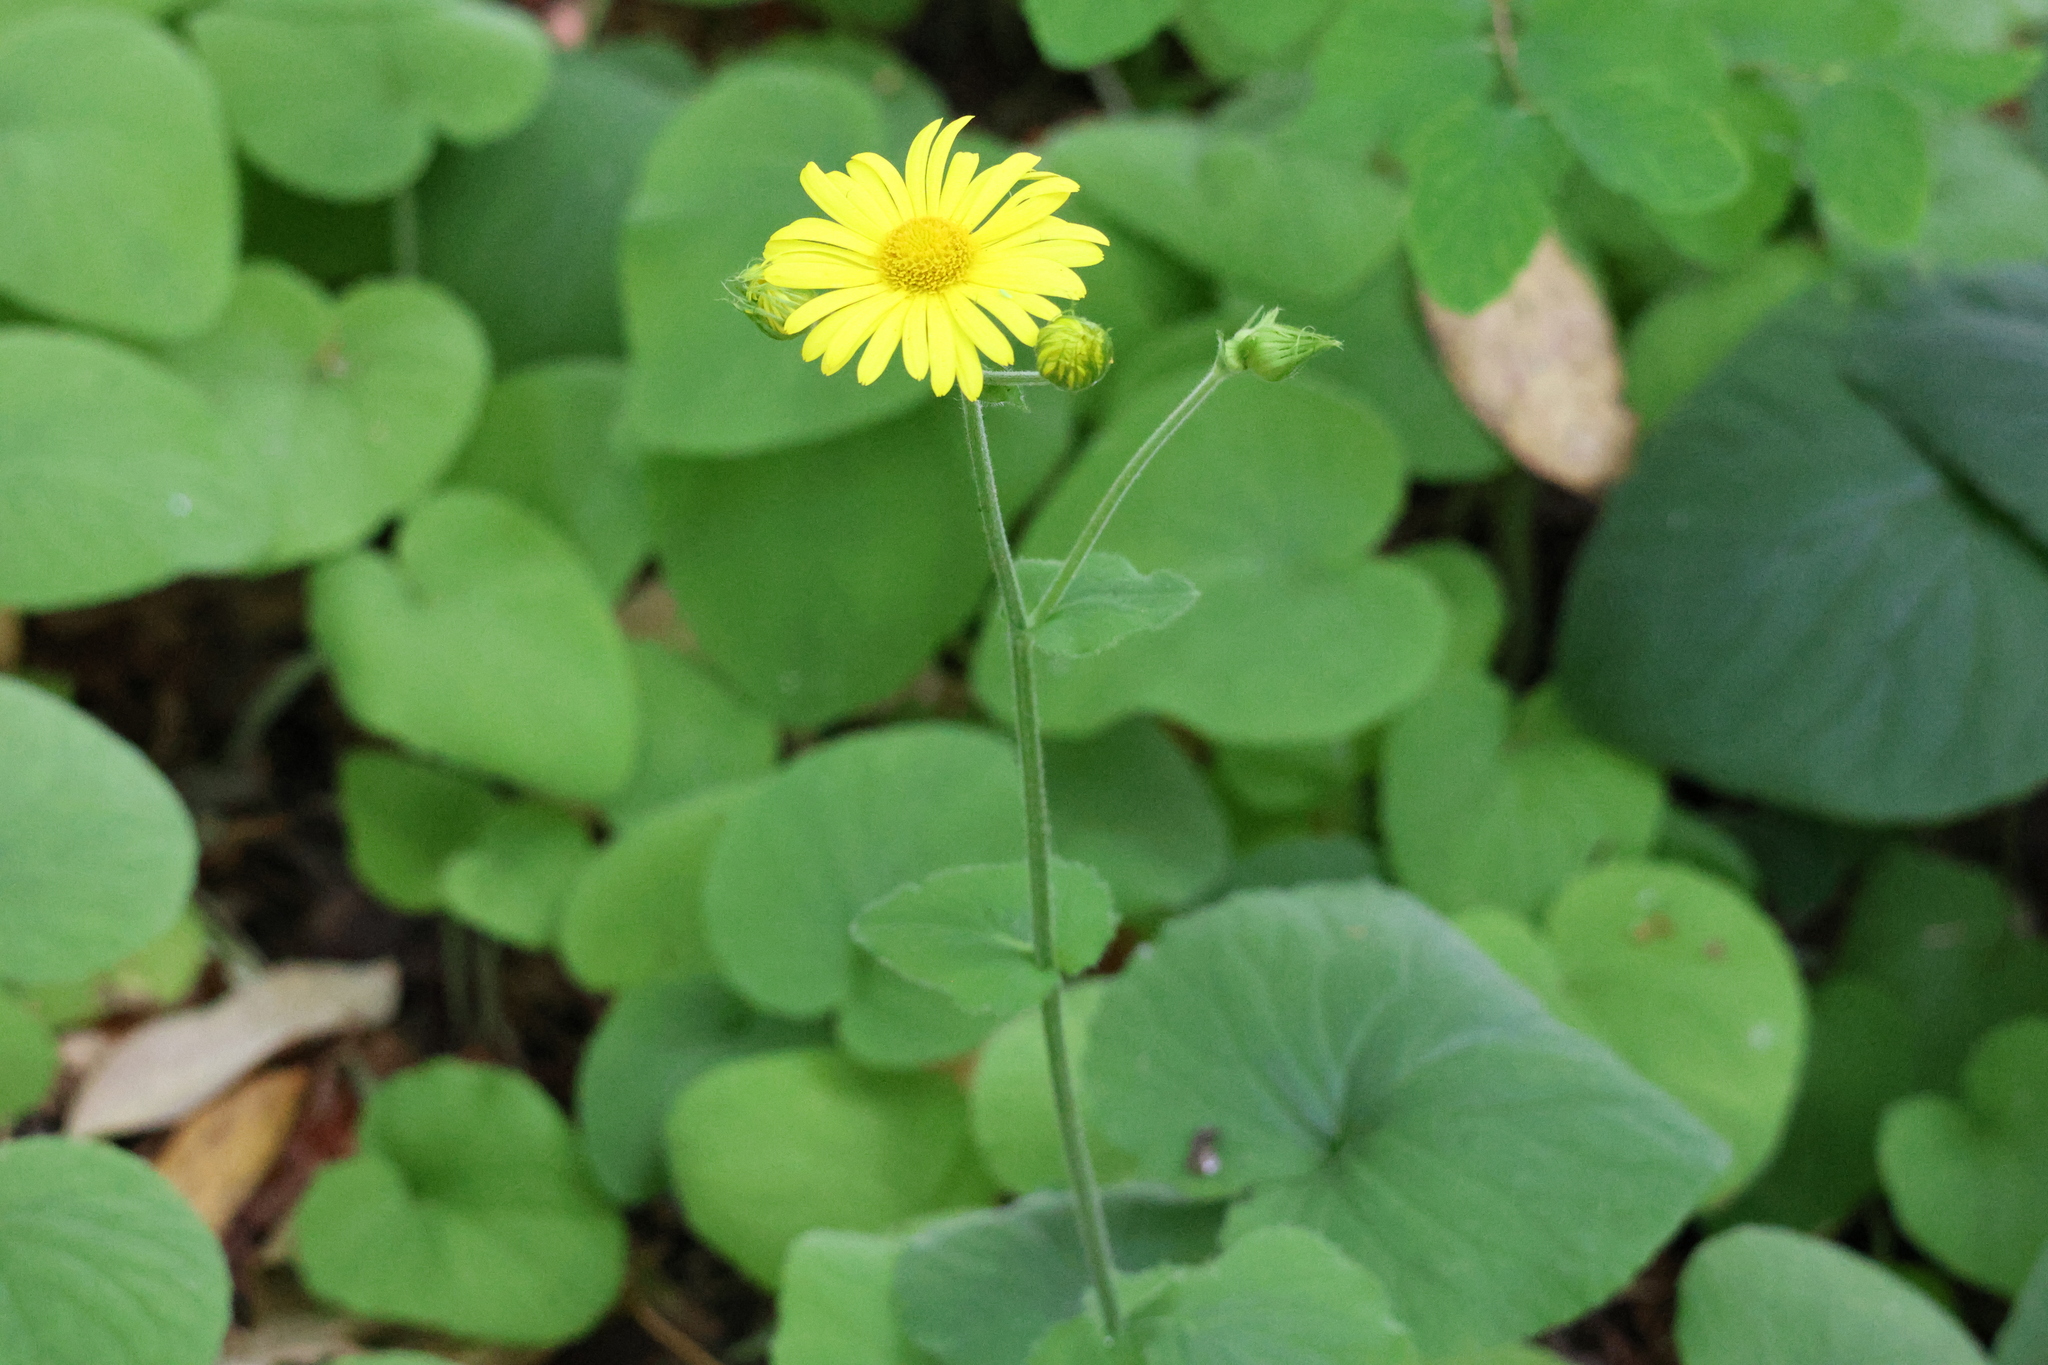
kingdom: Plantae
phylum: Tracheophyta
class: Magnoliopsida
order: Asterales
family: Asteraceae
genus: Doronicum
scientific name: Doronicum pardalianches
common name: Leopard's-bane
